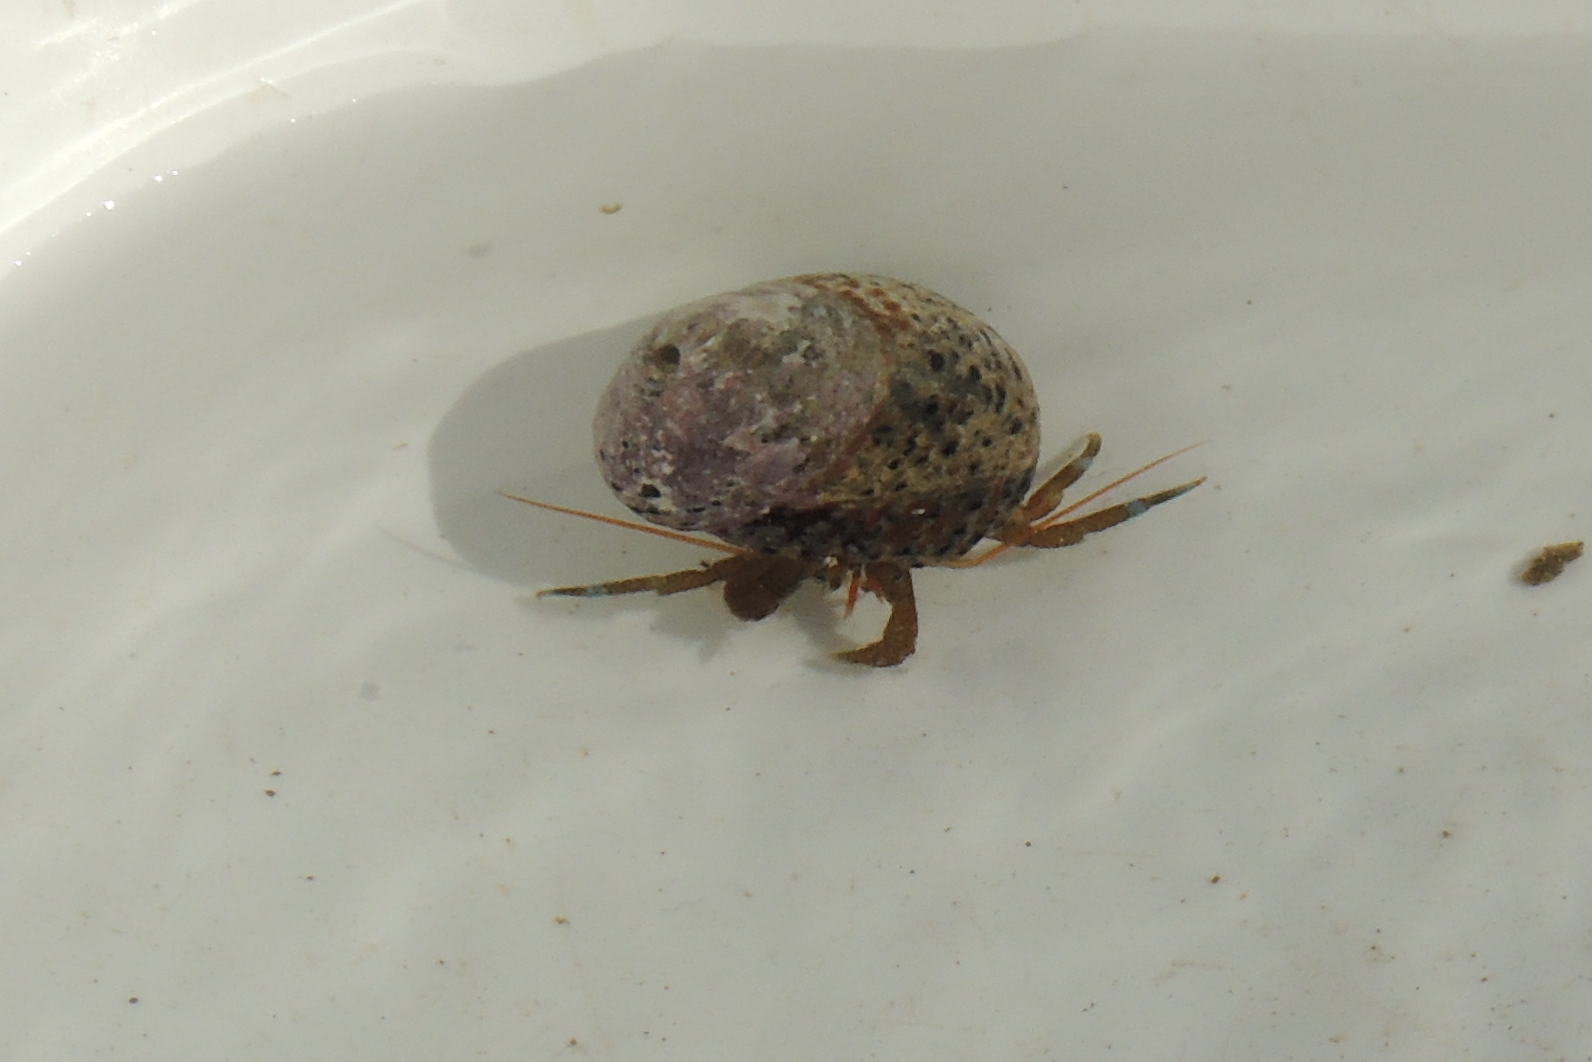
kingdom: Animalia
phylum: Arthropoda
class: Malacostraca
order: Decapoda
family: Paguridae
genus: Pagurus
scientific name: Pagurus samuelis
